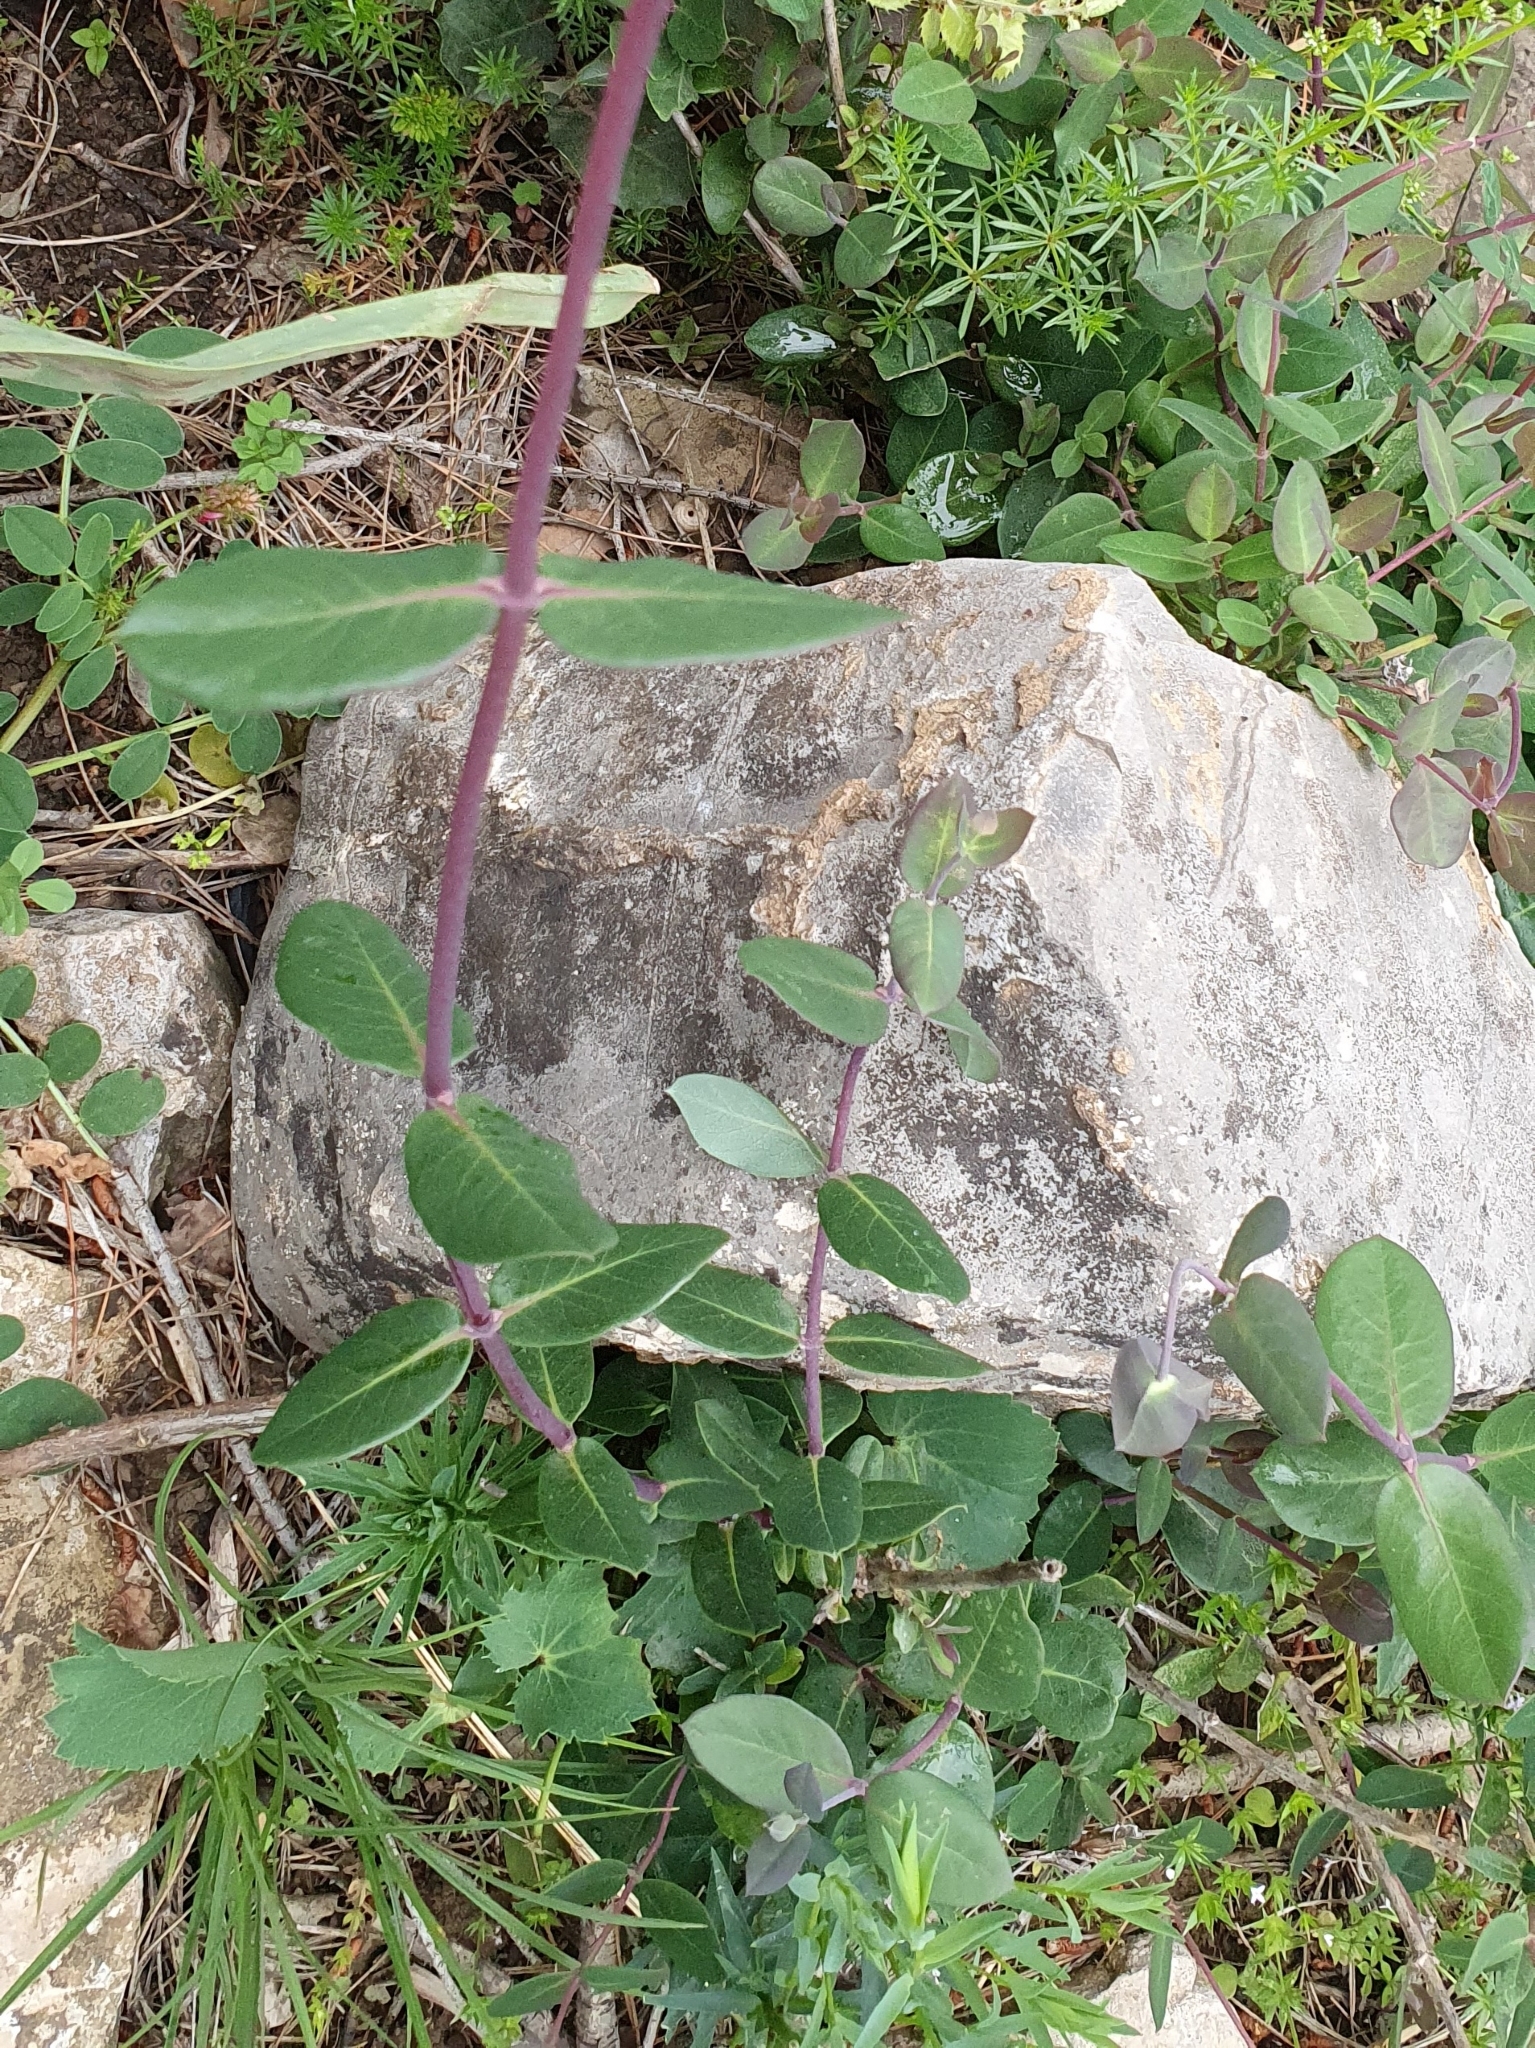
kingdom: Plantae
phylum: Tracheophyta
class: Magnoliopsida
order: Dipsacales
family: Caprifoliaceae
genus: Lonicera
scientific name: Lonicera implexa
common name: Minorca honeysuckle
